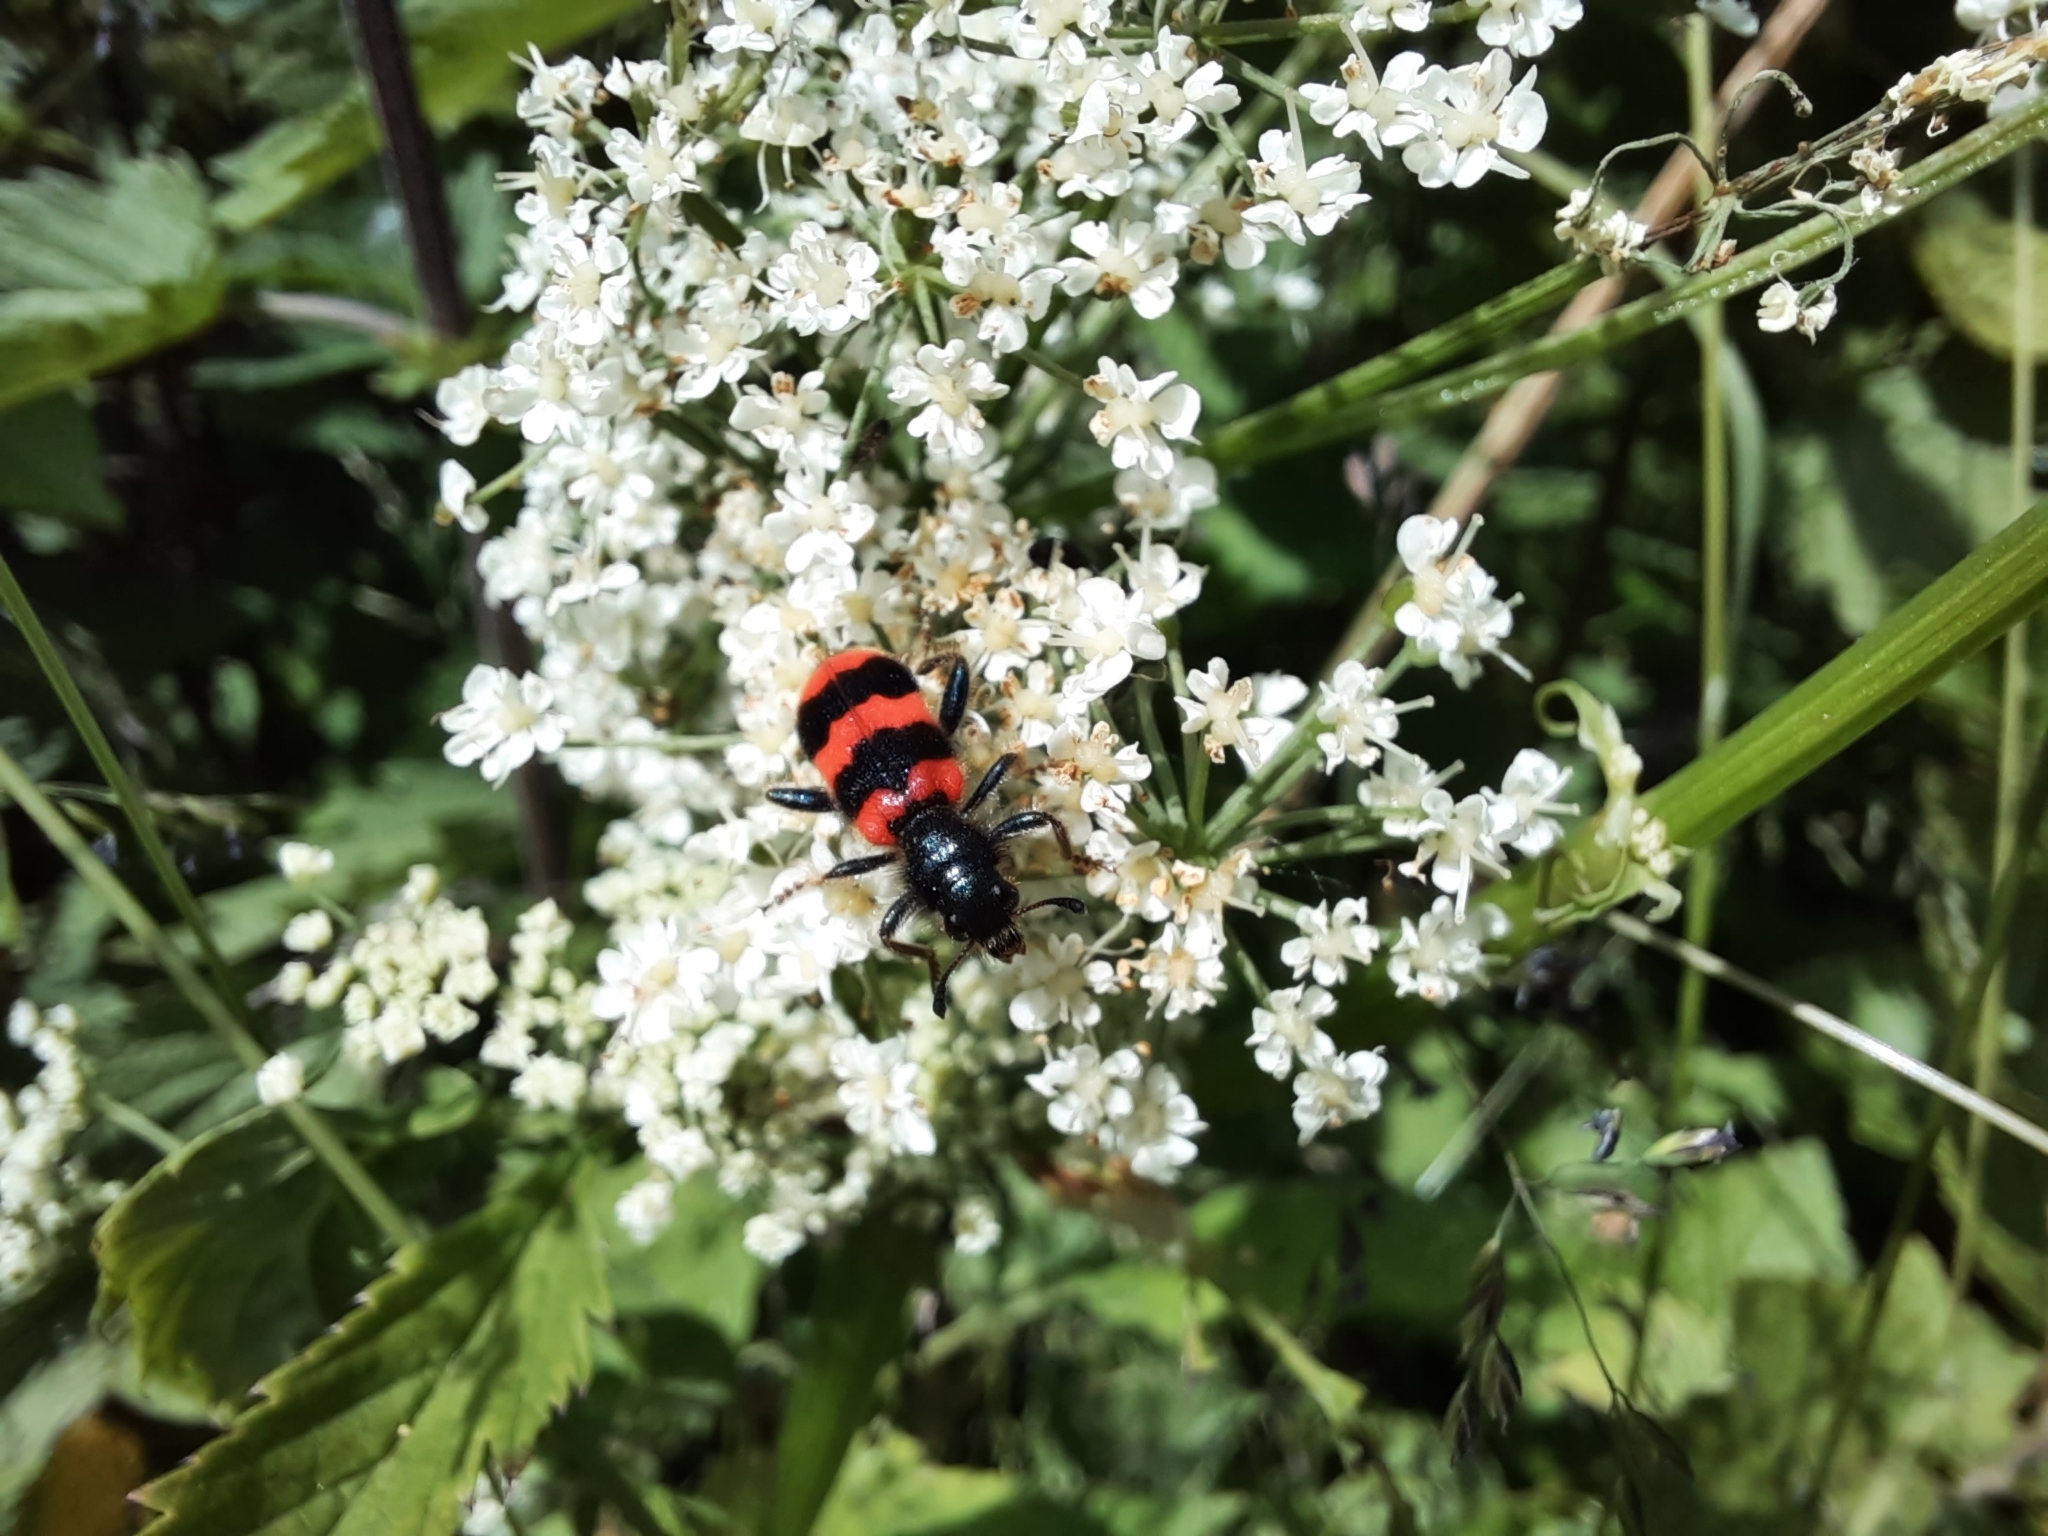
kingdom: Animalia
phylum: Arthropoda
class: Insecta
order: Coleoptera
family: Cleridae
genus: Trichodes
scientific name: Trichodes apiarius
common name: Bee-eating beetle
